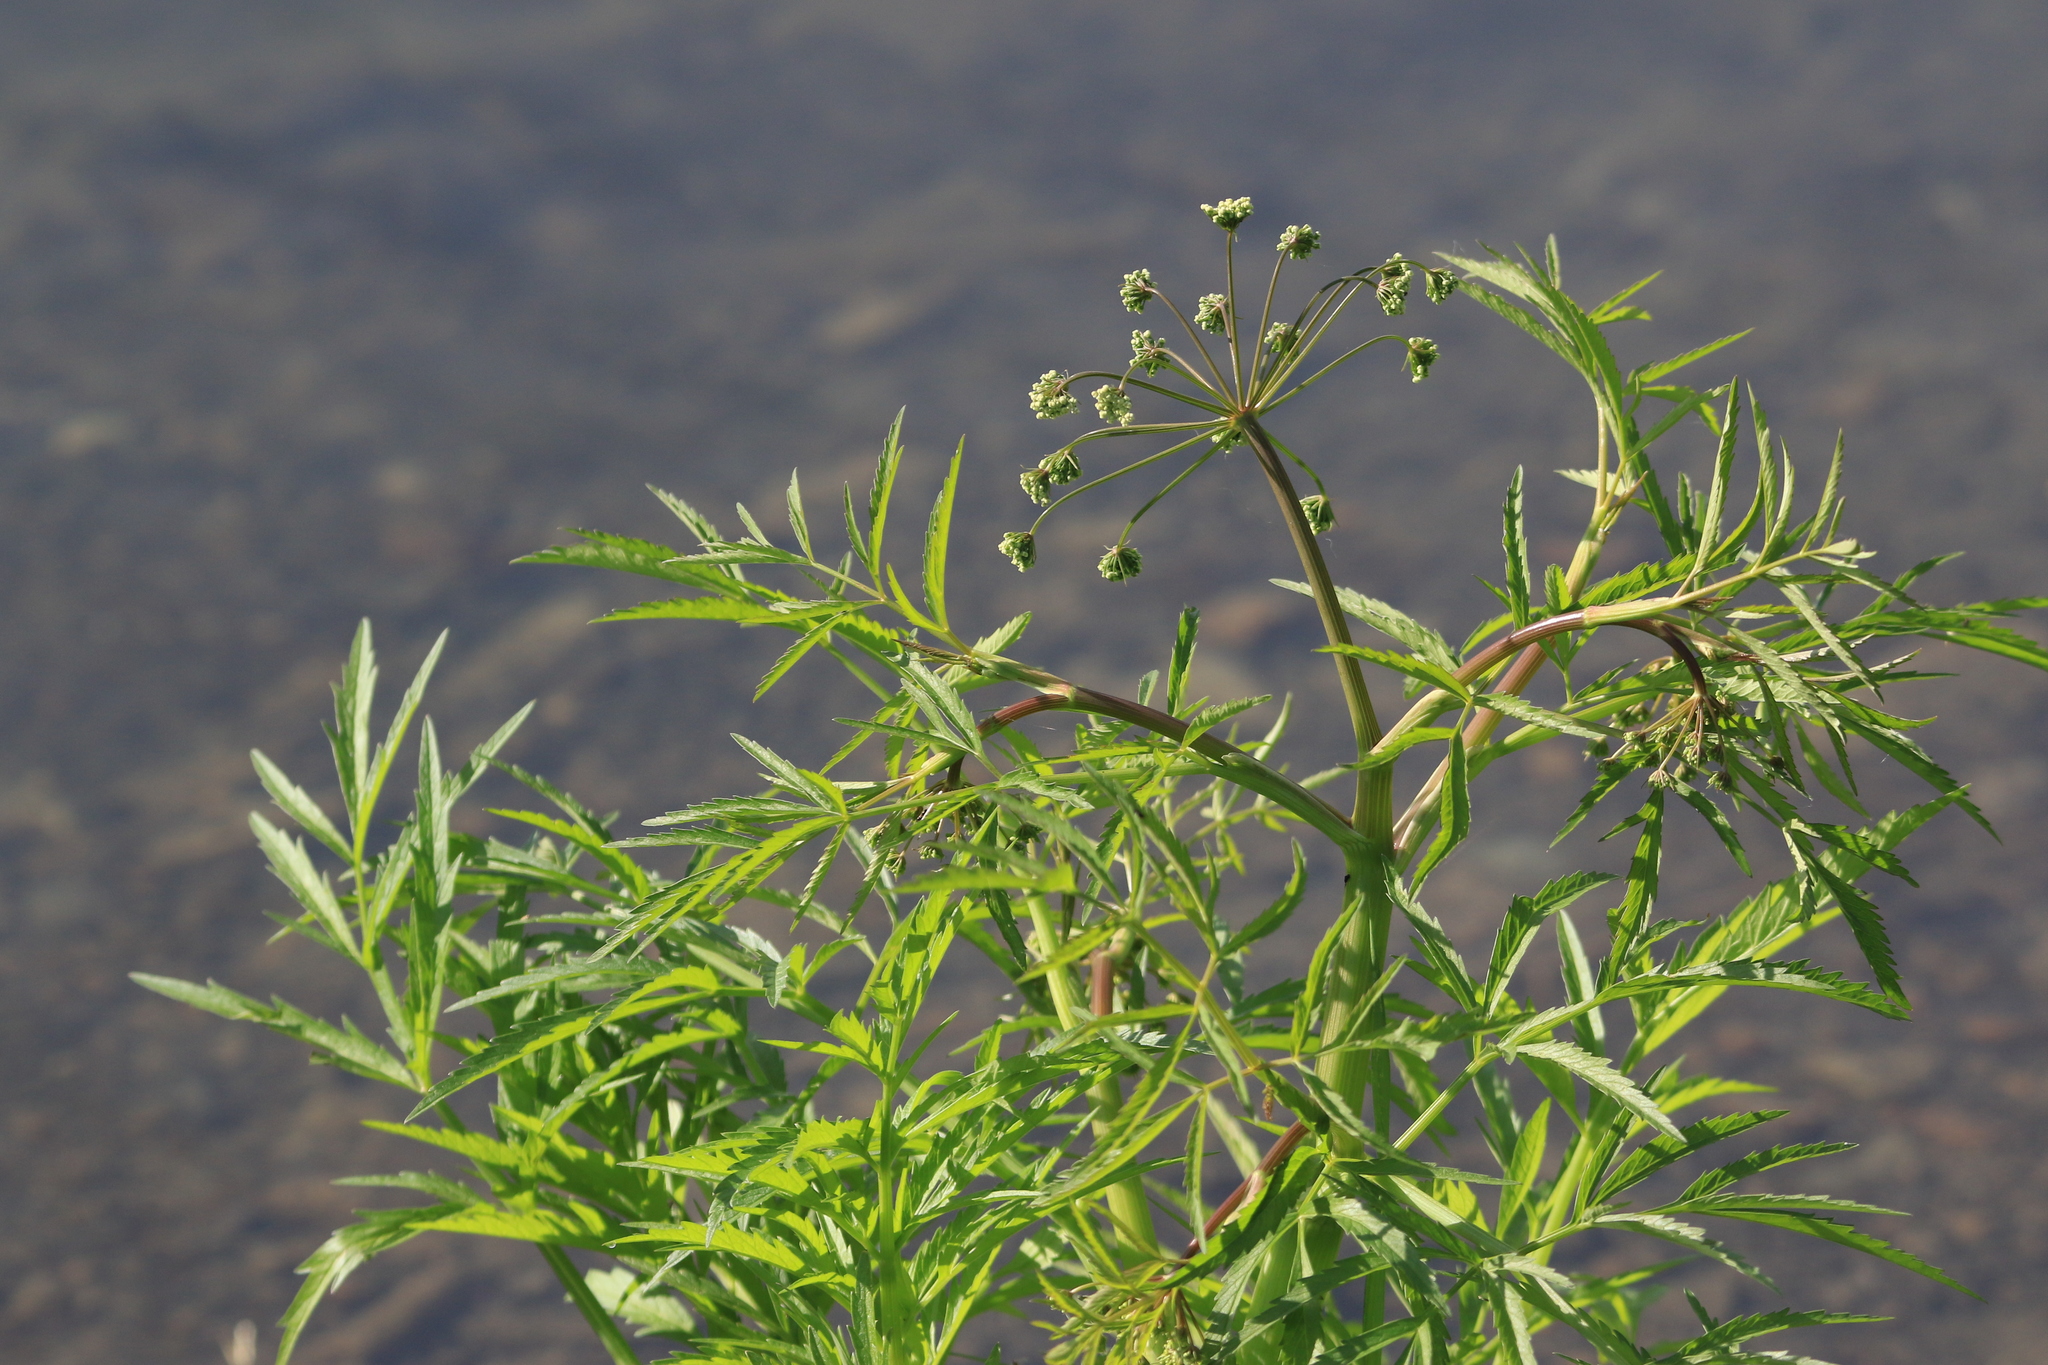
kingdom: Plantae
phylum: Tracheophyta
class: Magnoliopsida
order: Apiales
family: Apiaceae
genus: Cicuta
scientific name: Cicuta virosa
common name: Cowbane
